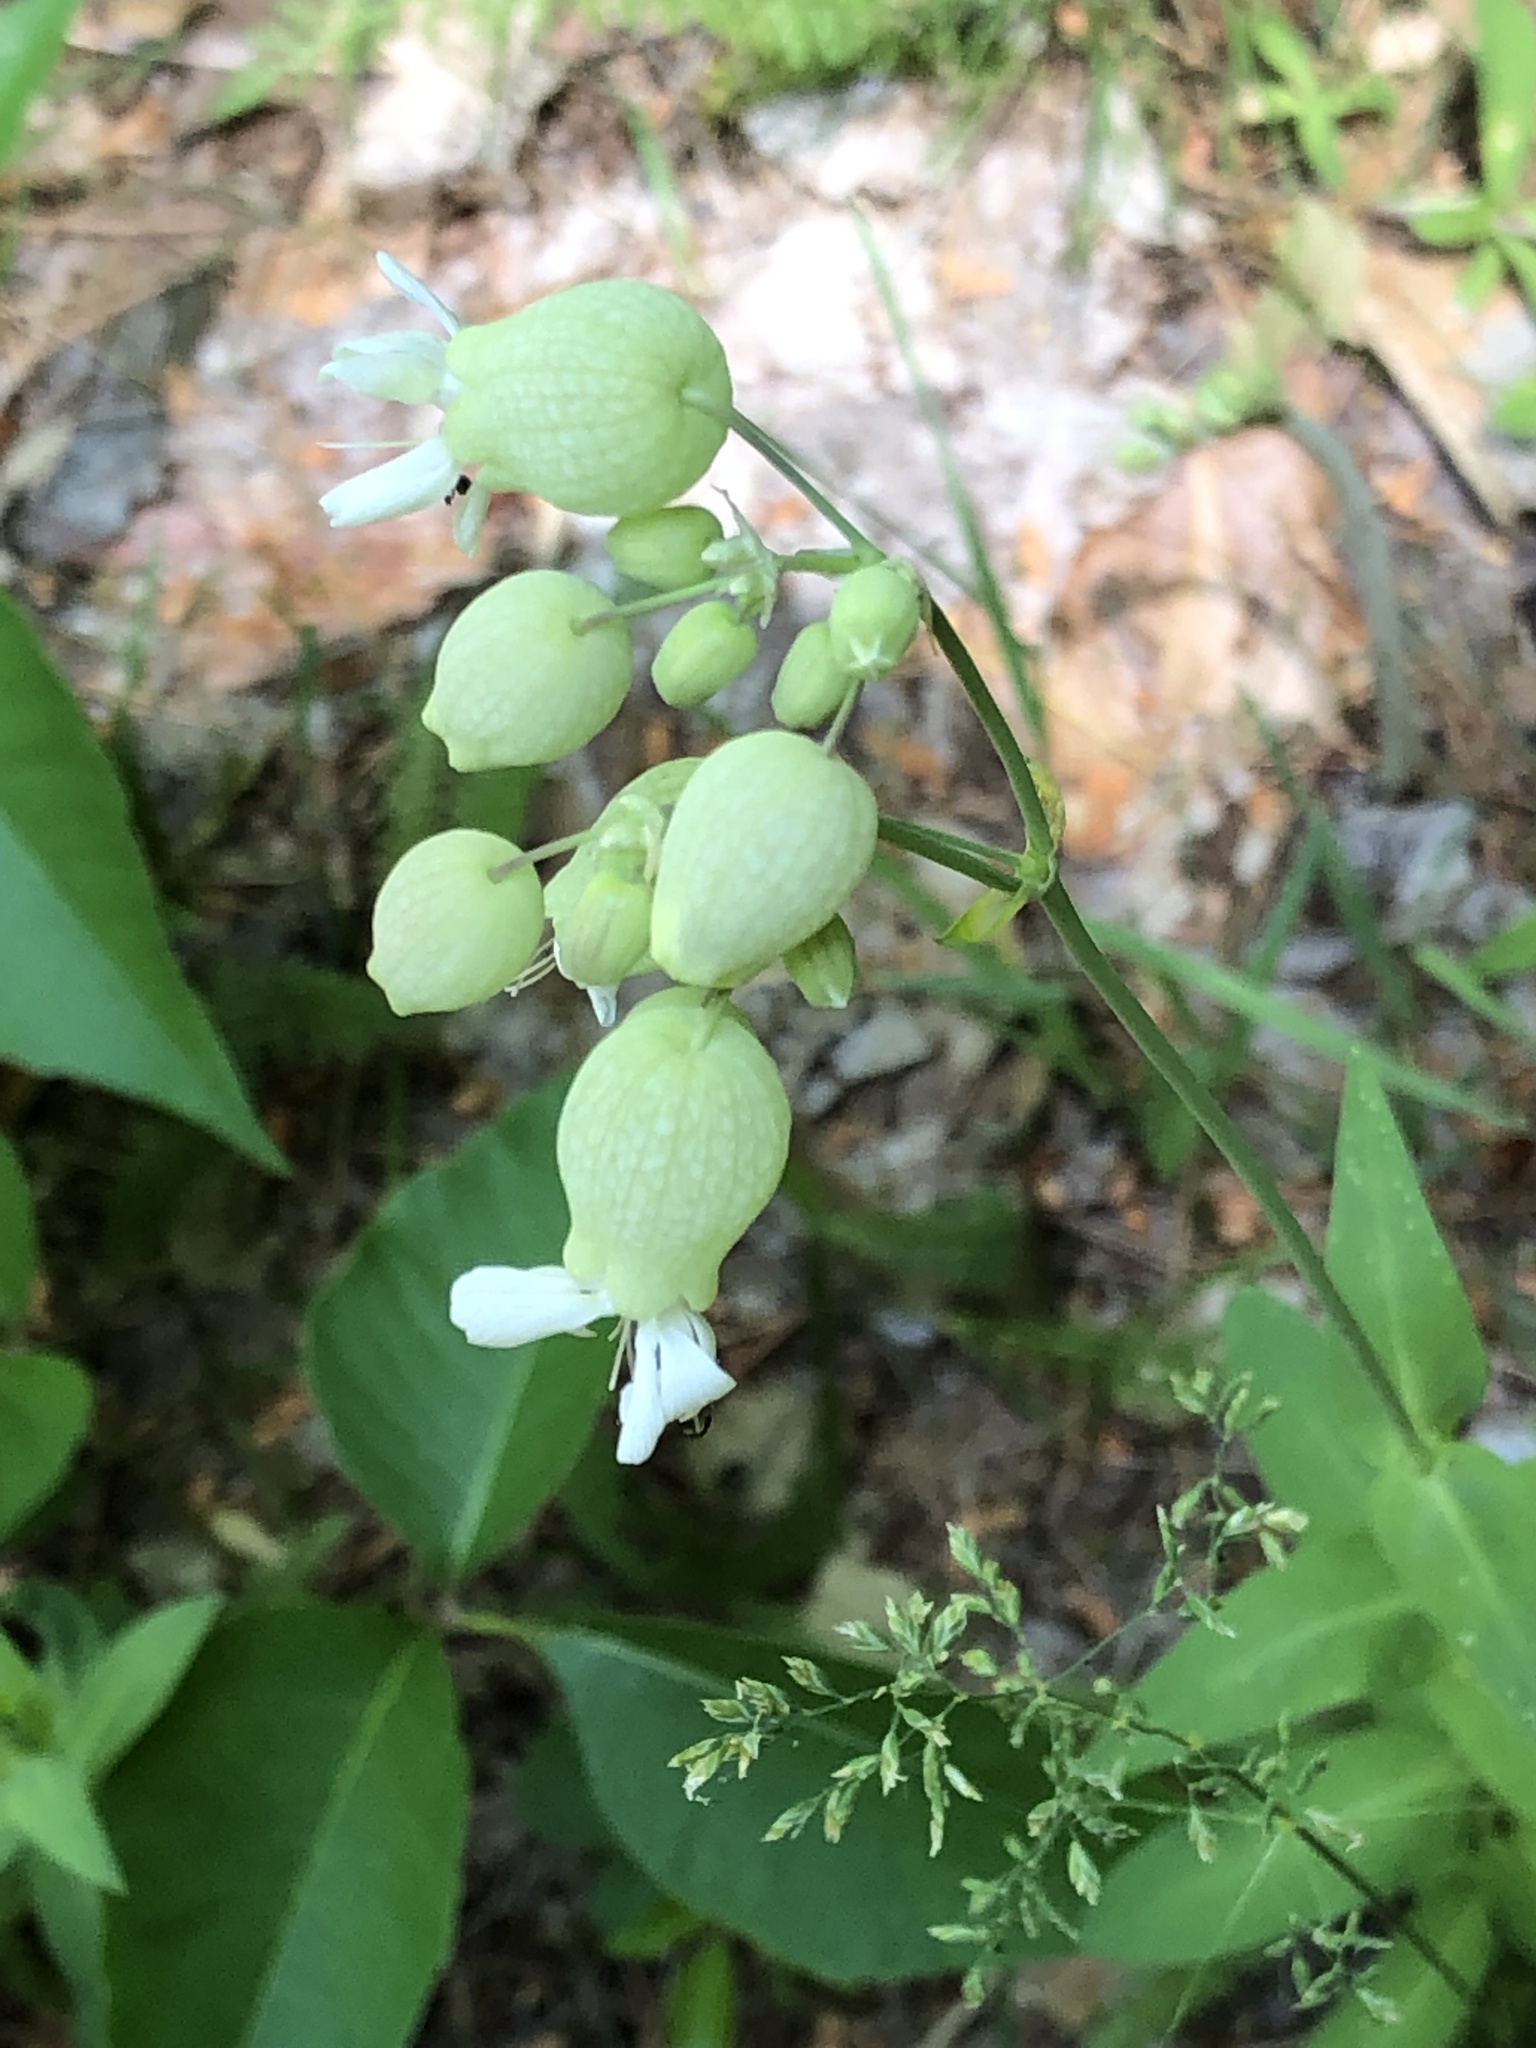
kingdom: Plantae
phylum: Tracheophyta
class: Magnoliopsida
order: Caryophyllales
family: Caryophyllaceae
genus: Silene
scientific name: Silene vulgaris
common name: Bladder campion
